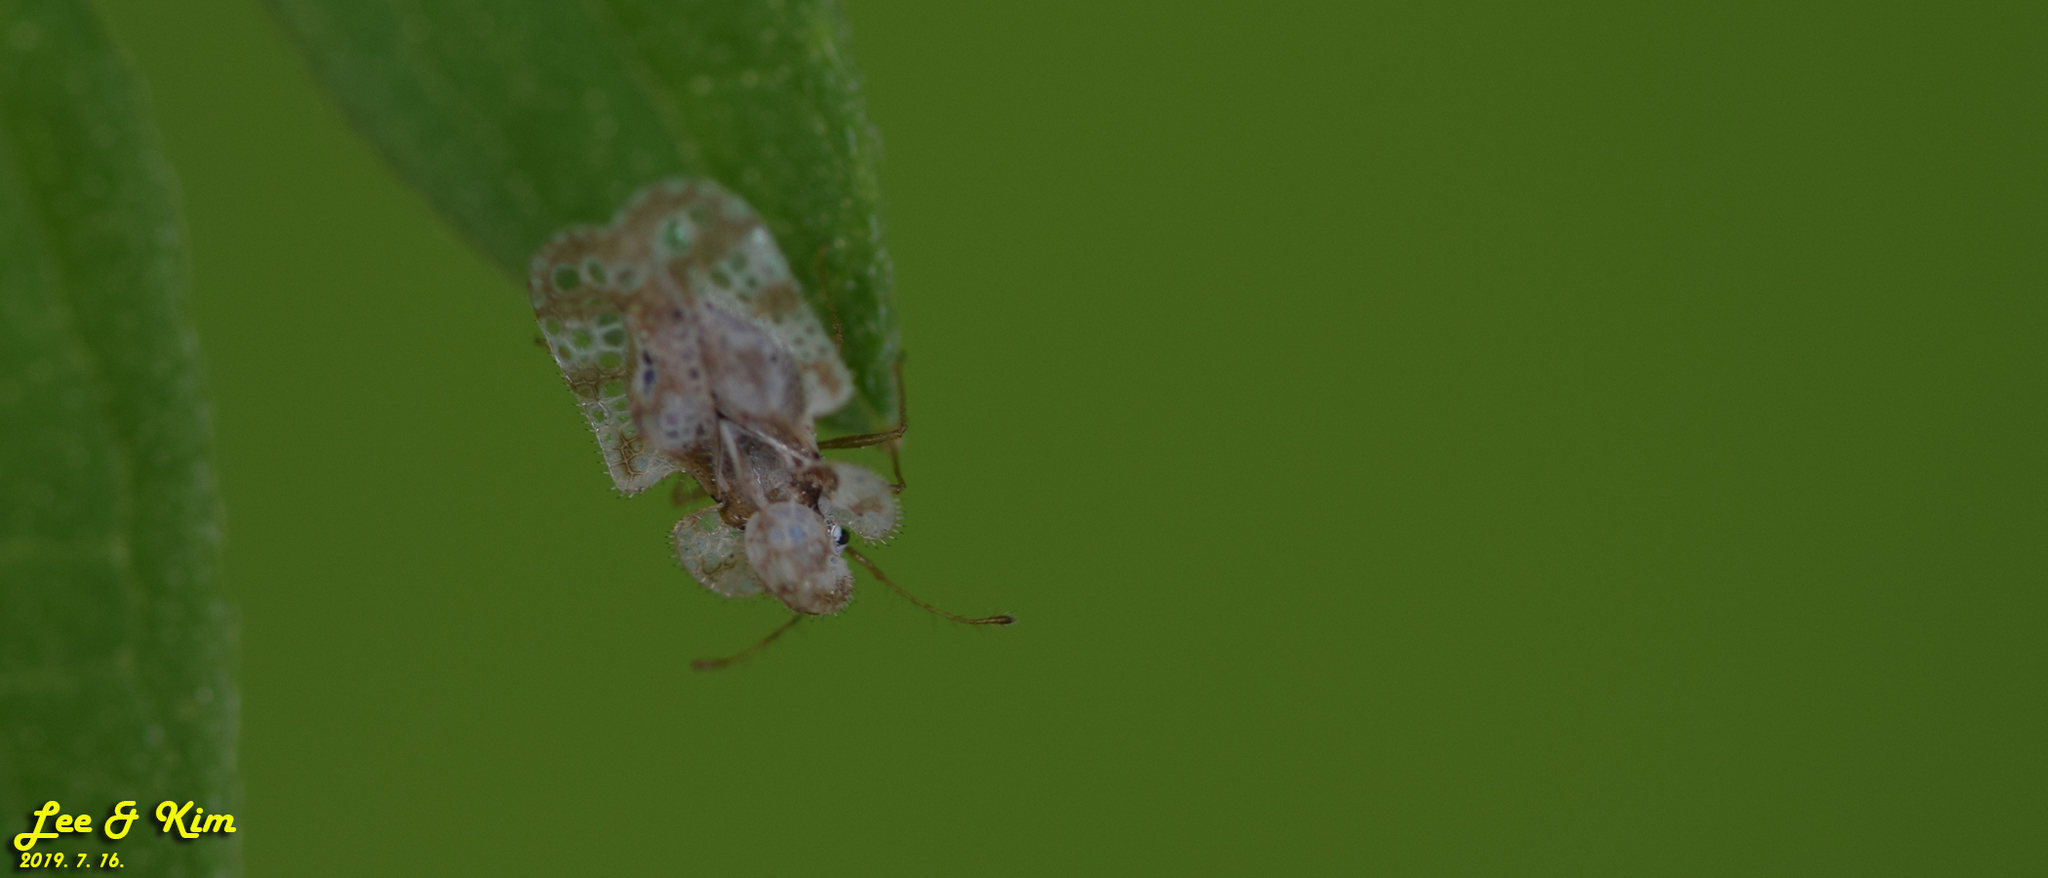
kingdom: Animalia
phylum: Arthropoda
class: Insecta
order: Hemiptera
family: Tingidae
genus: Corythucha
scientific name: Corythucha marmorata
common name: Chrysanthemum lace bug
